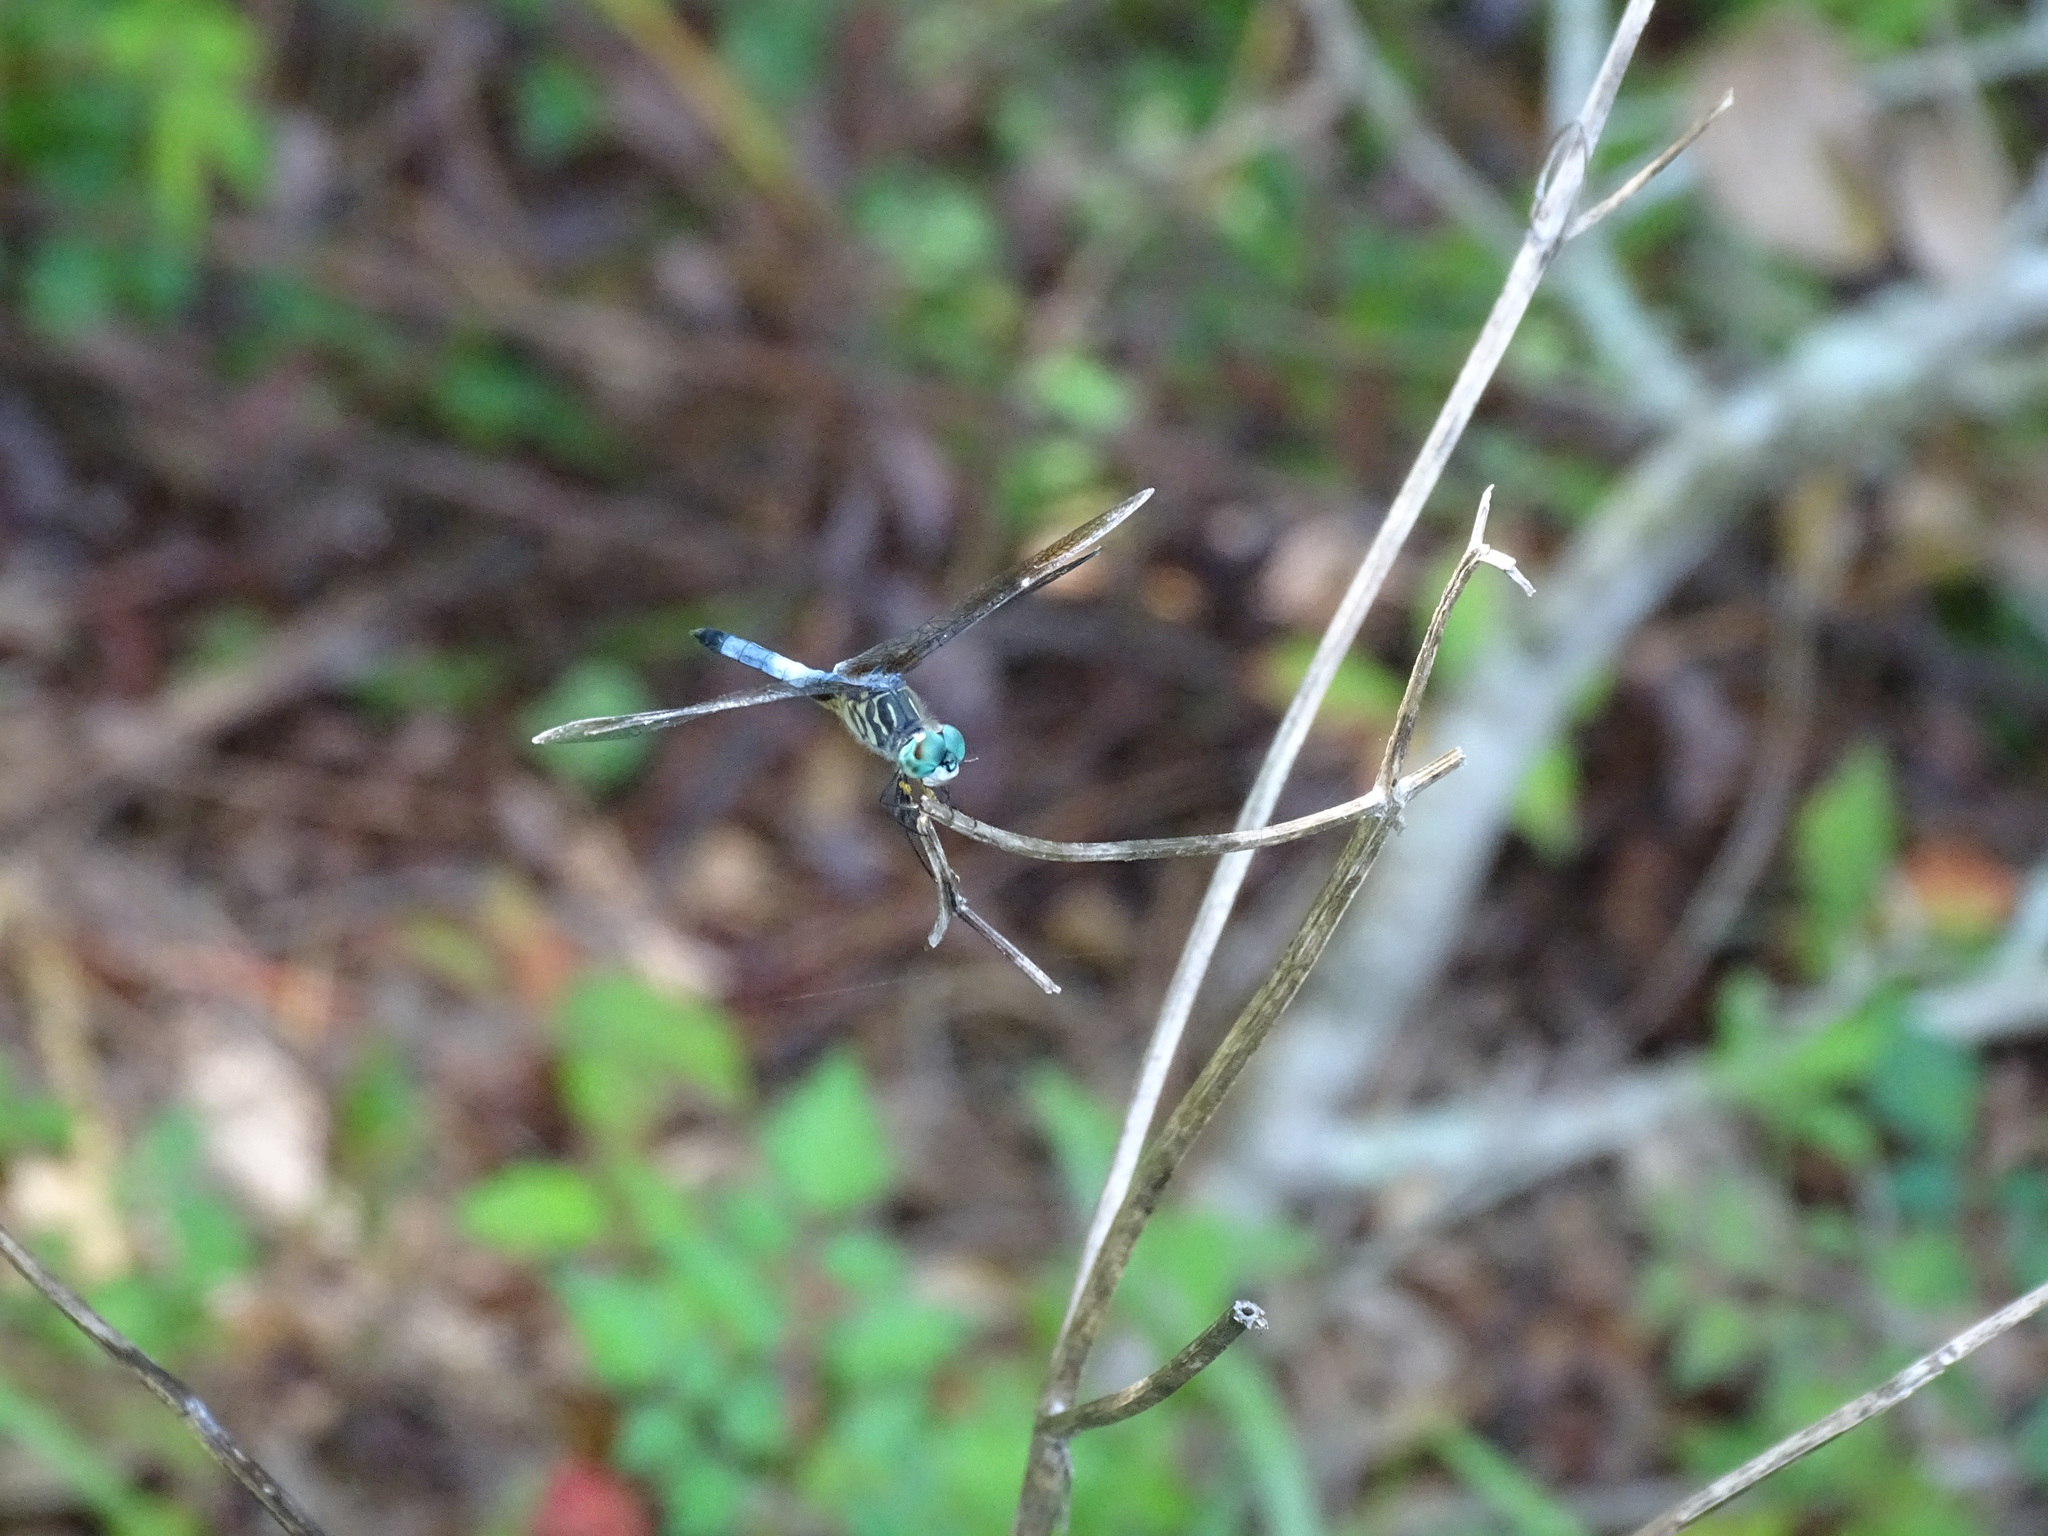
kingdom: Animalia
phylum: Arthropoda
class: Insecta
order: Odonata
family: Libellulidae
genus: Pachydiplax
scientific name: Pachydiplax longipennis
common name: Blue dasher
